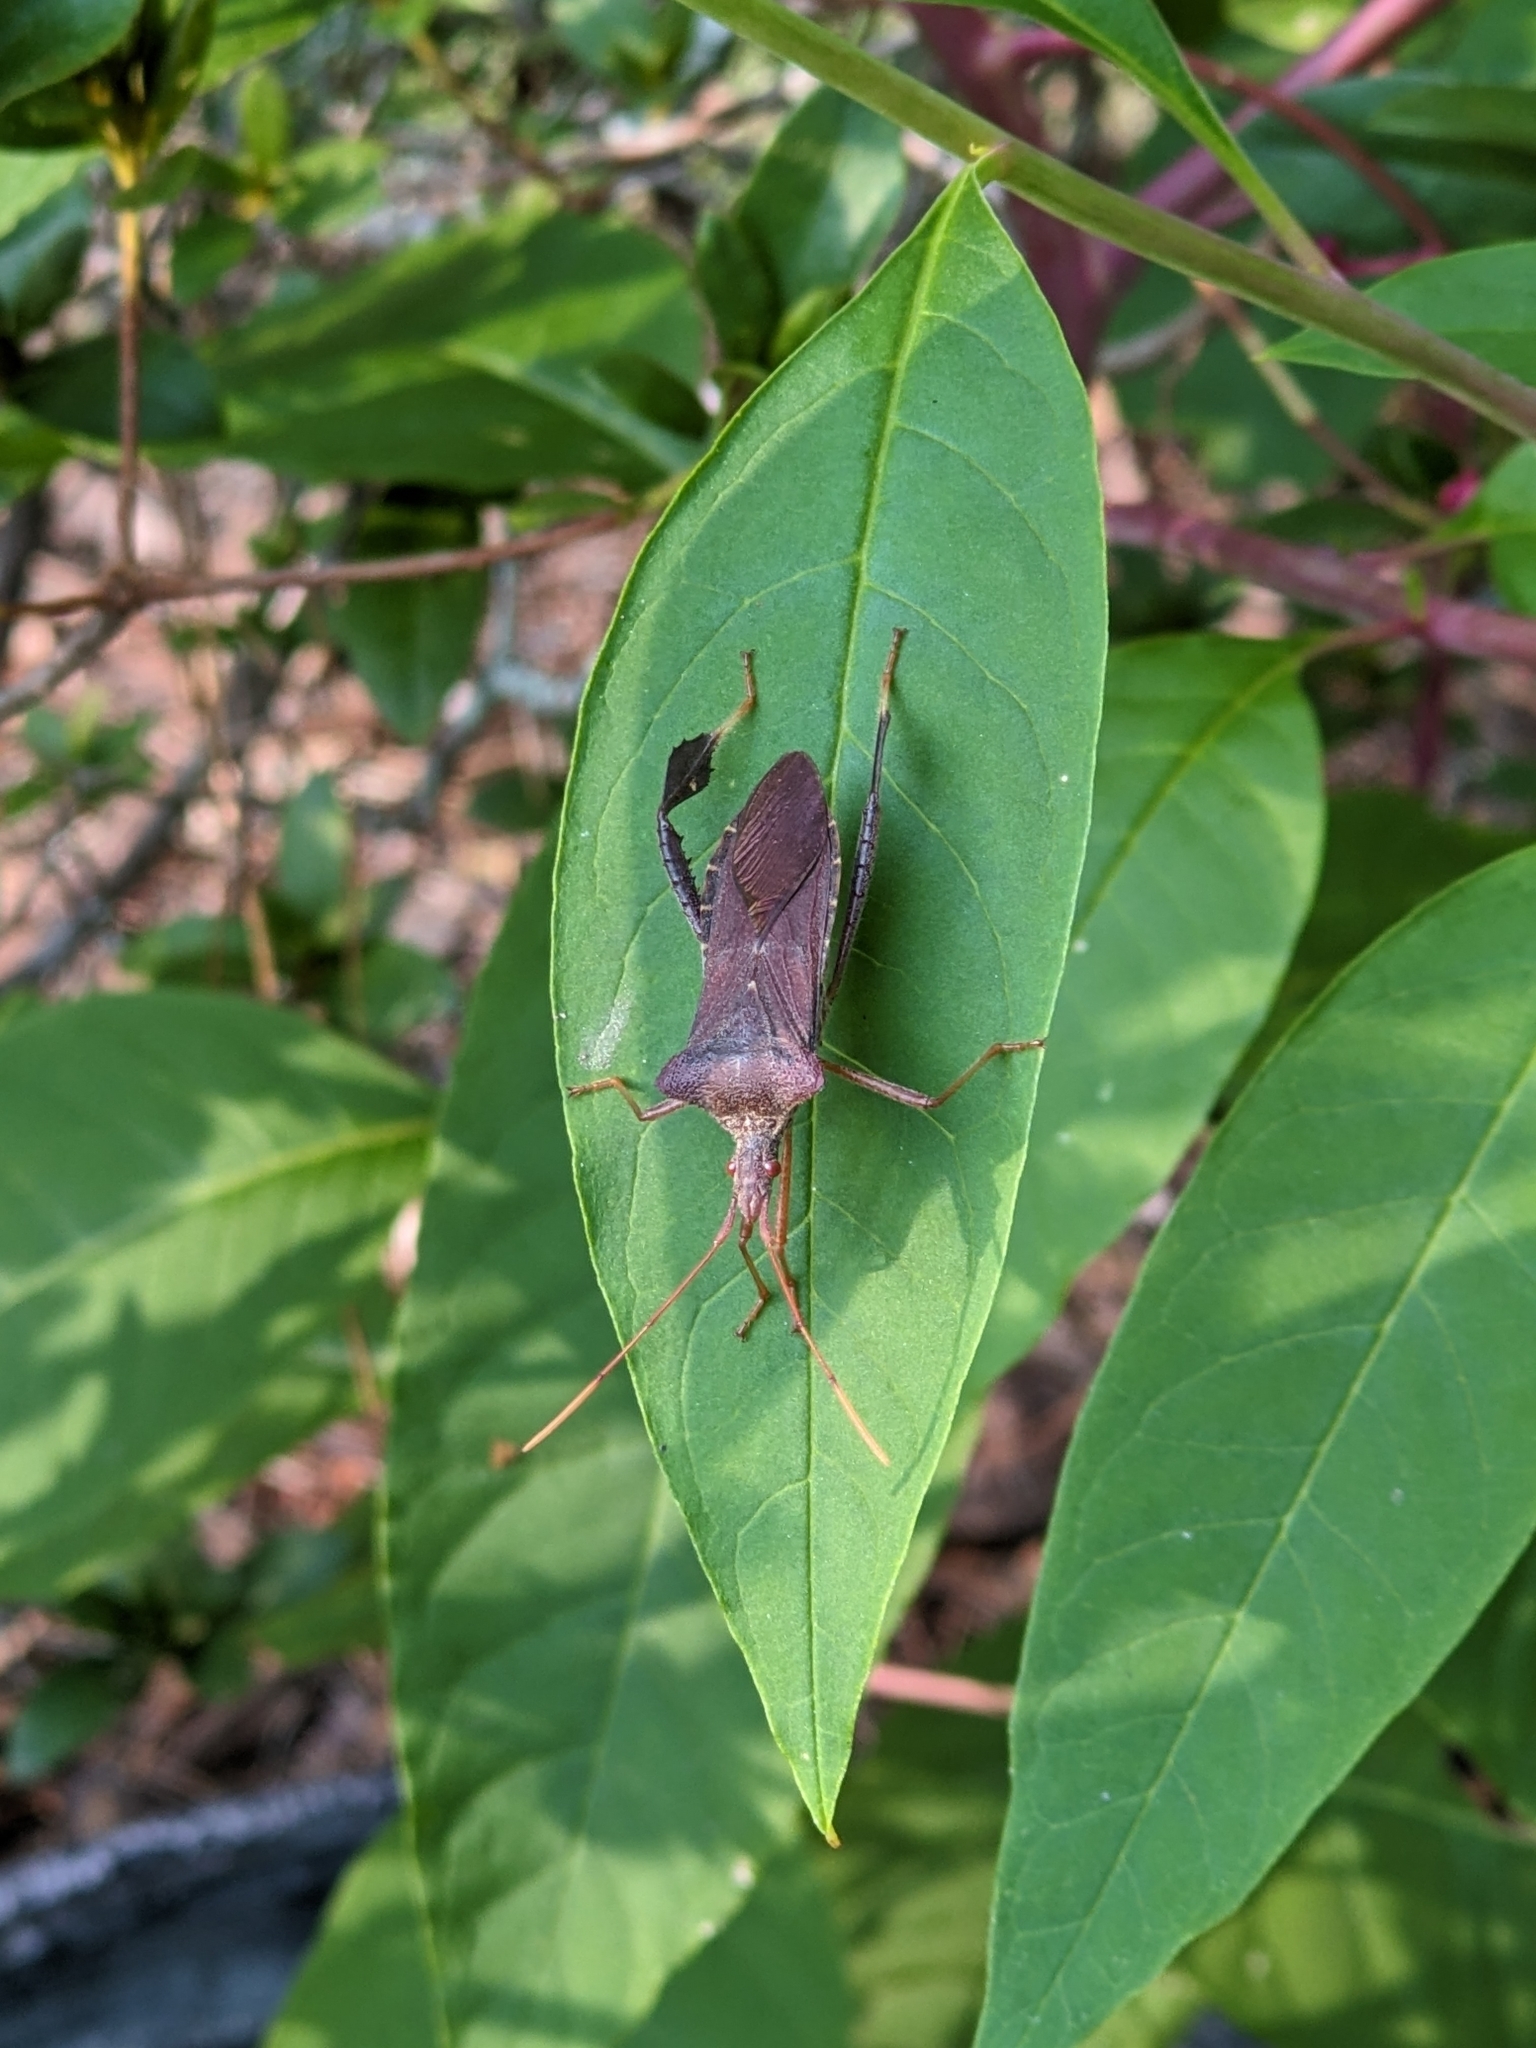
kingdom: Animalia
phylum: Arthropoda
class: Insecta
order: Hemiptera
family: Coreidae
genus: Leptoglossus
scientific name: Leptoglossus fulvicornis
